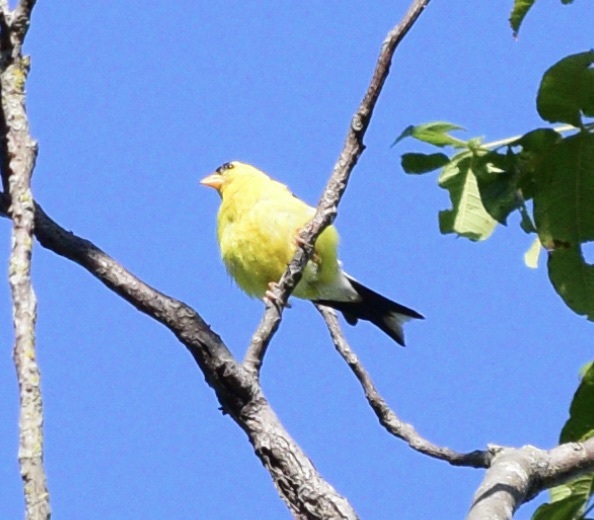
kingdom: Animalia
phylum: Chordata
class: Aves
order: Passeriformes
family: Fringillidae
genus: Spinus
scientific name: Spinus tristis
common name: American goldfinch
